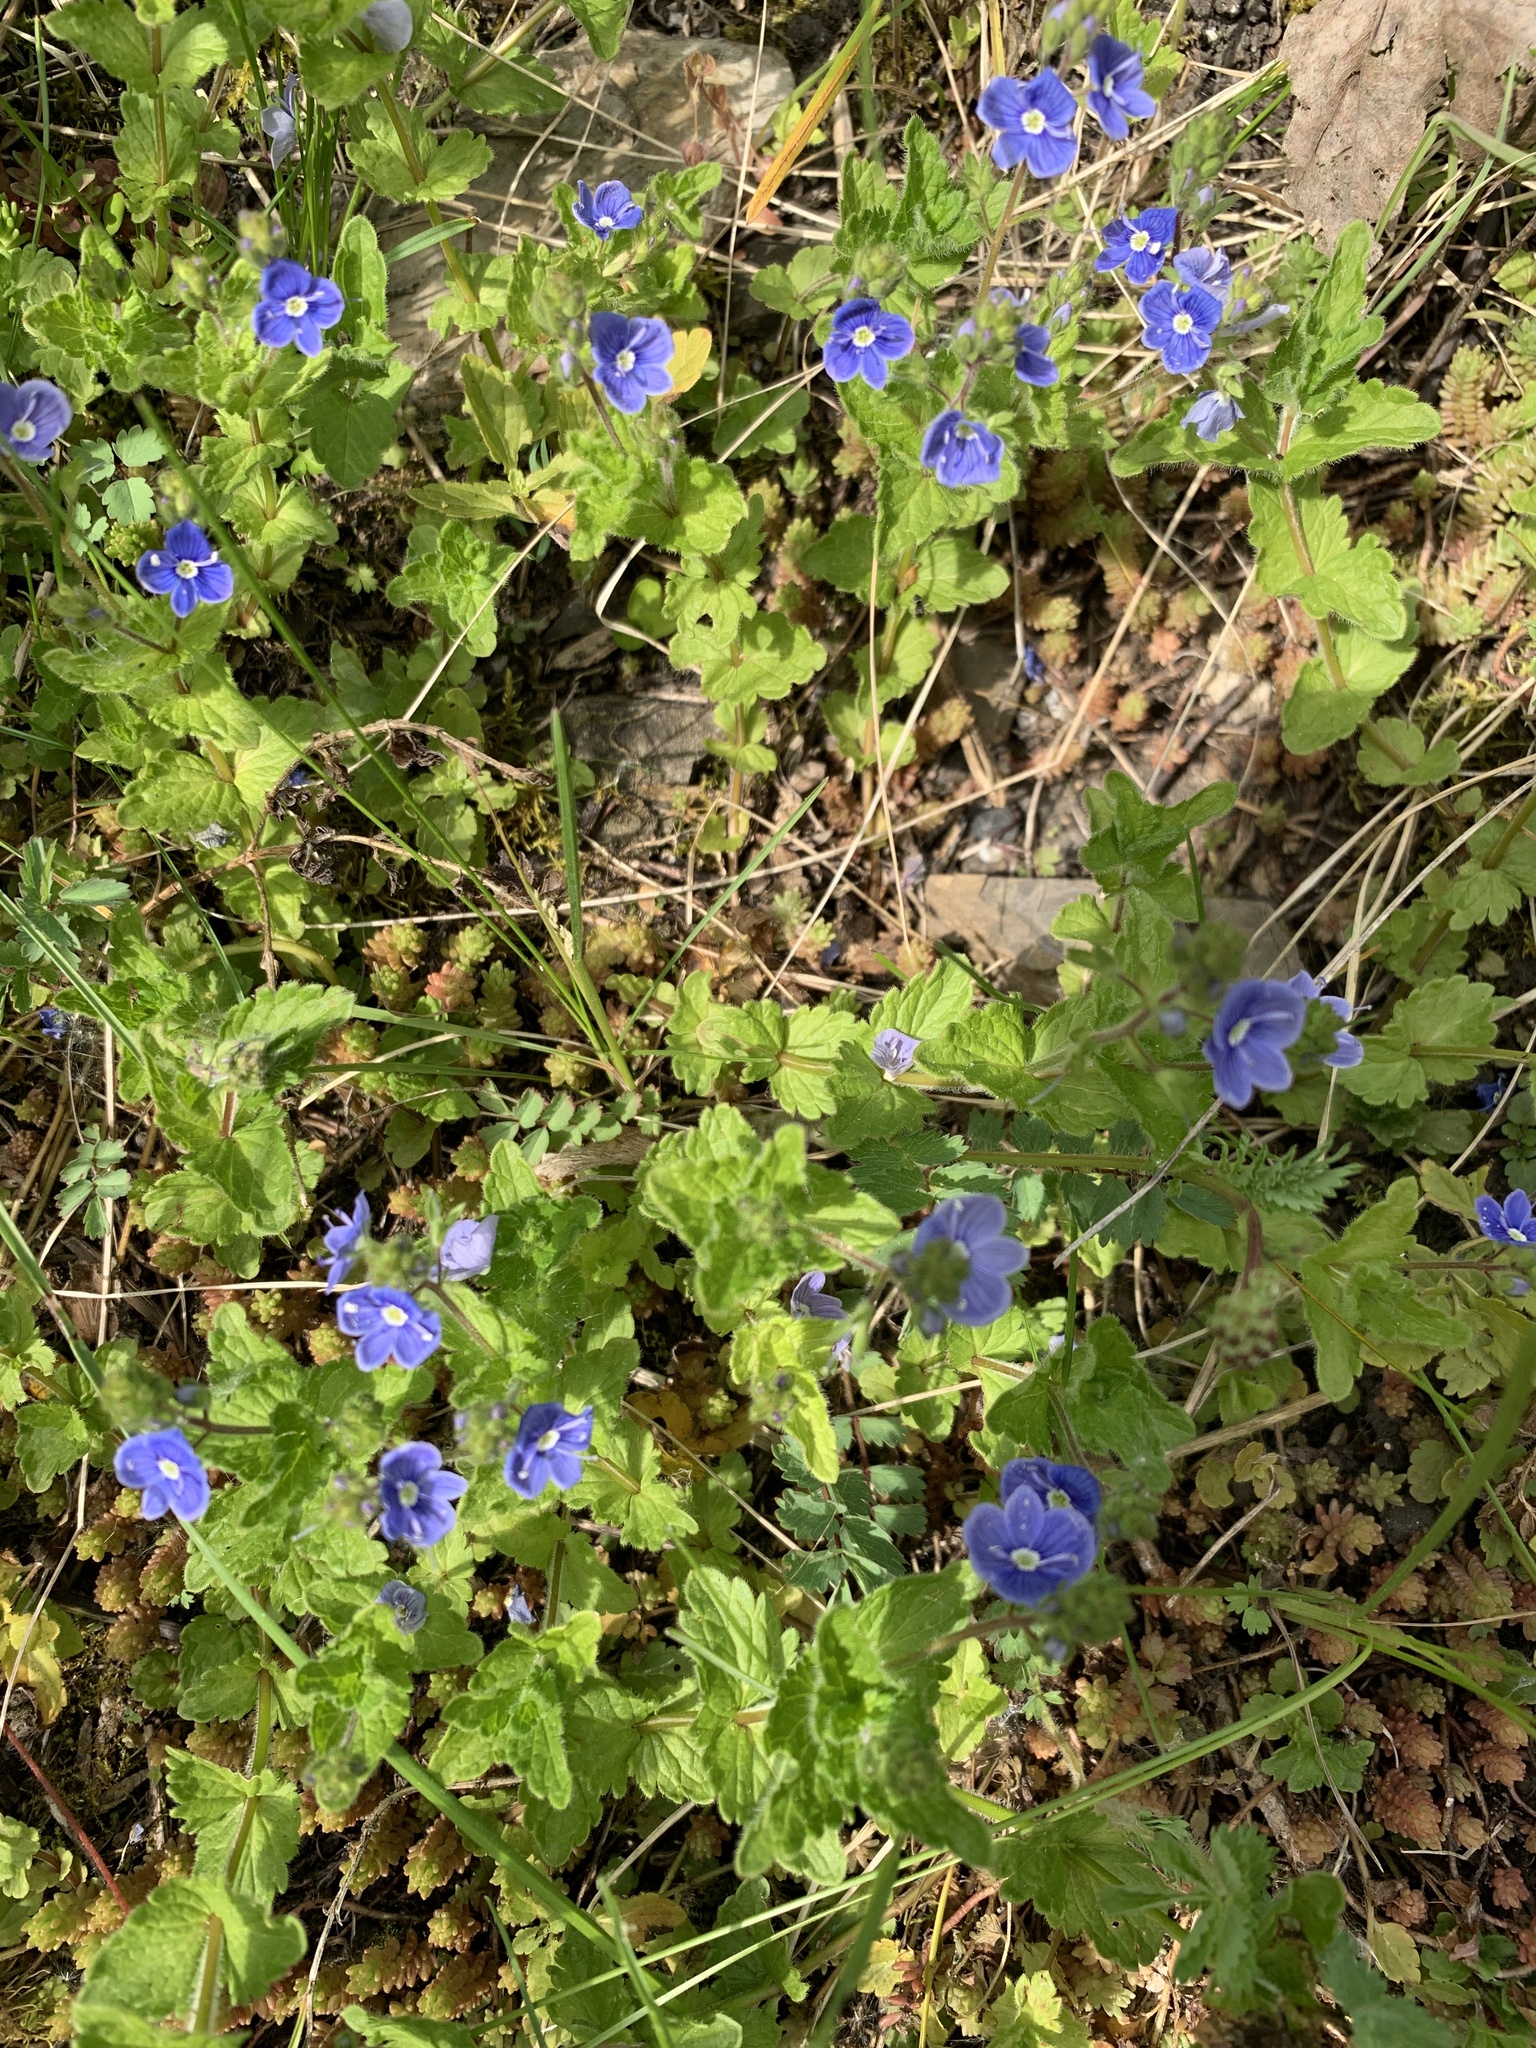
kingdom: Plantae
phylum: Tracheophyta
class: Magnoliopsida
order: Lamiales
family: Plantaginaceae
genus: Veronica
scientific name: Veronica chamaedrys
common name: Germander speedwell
